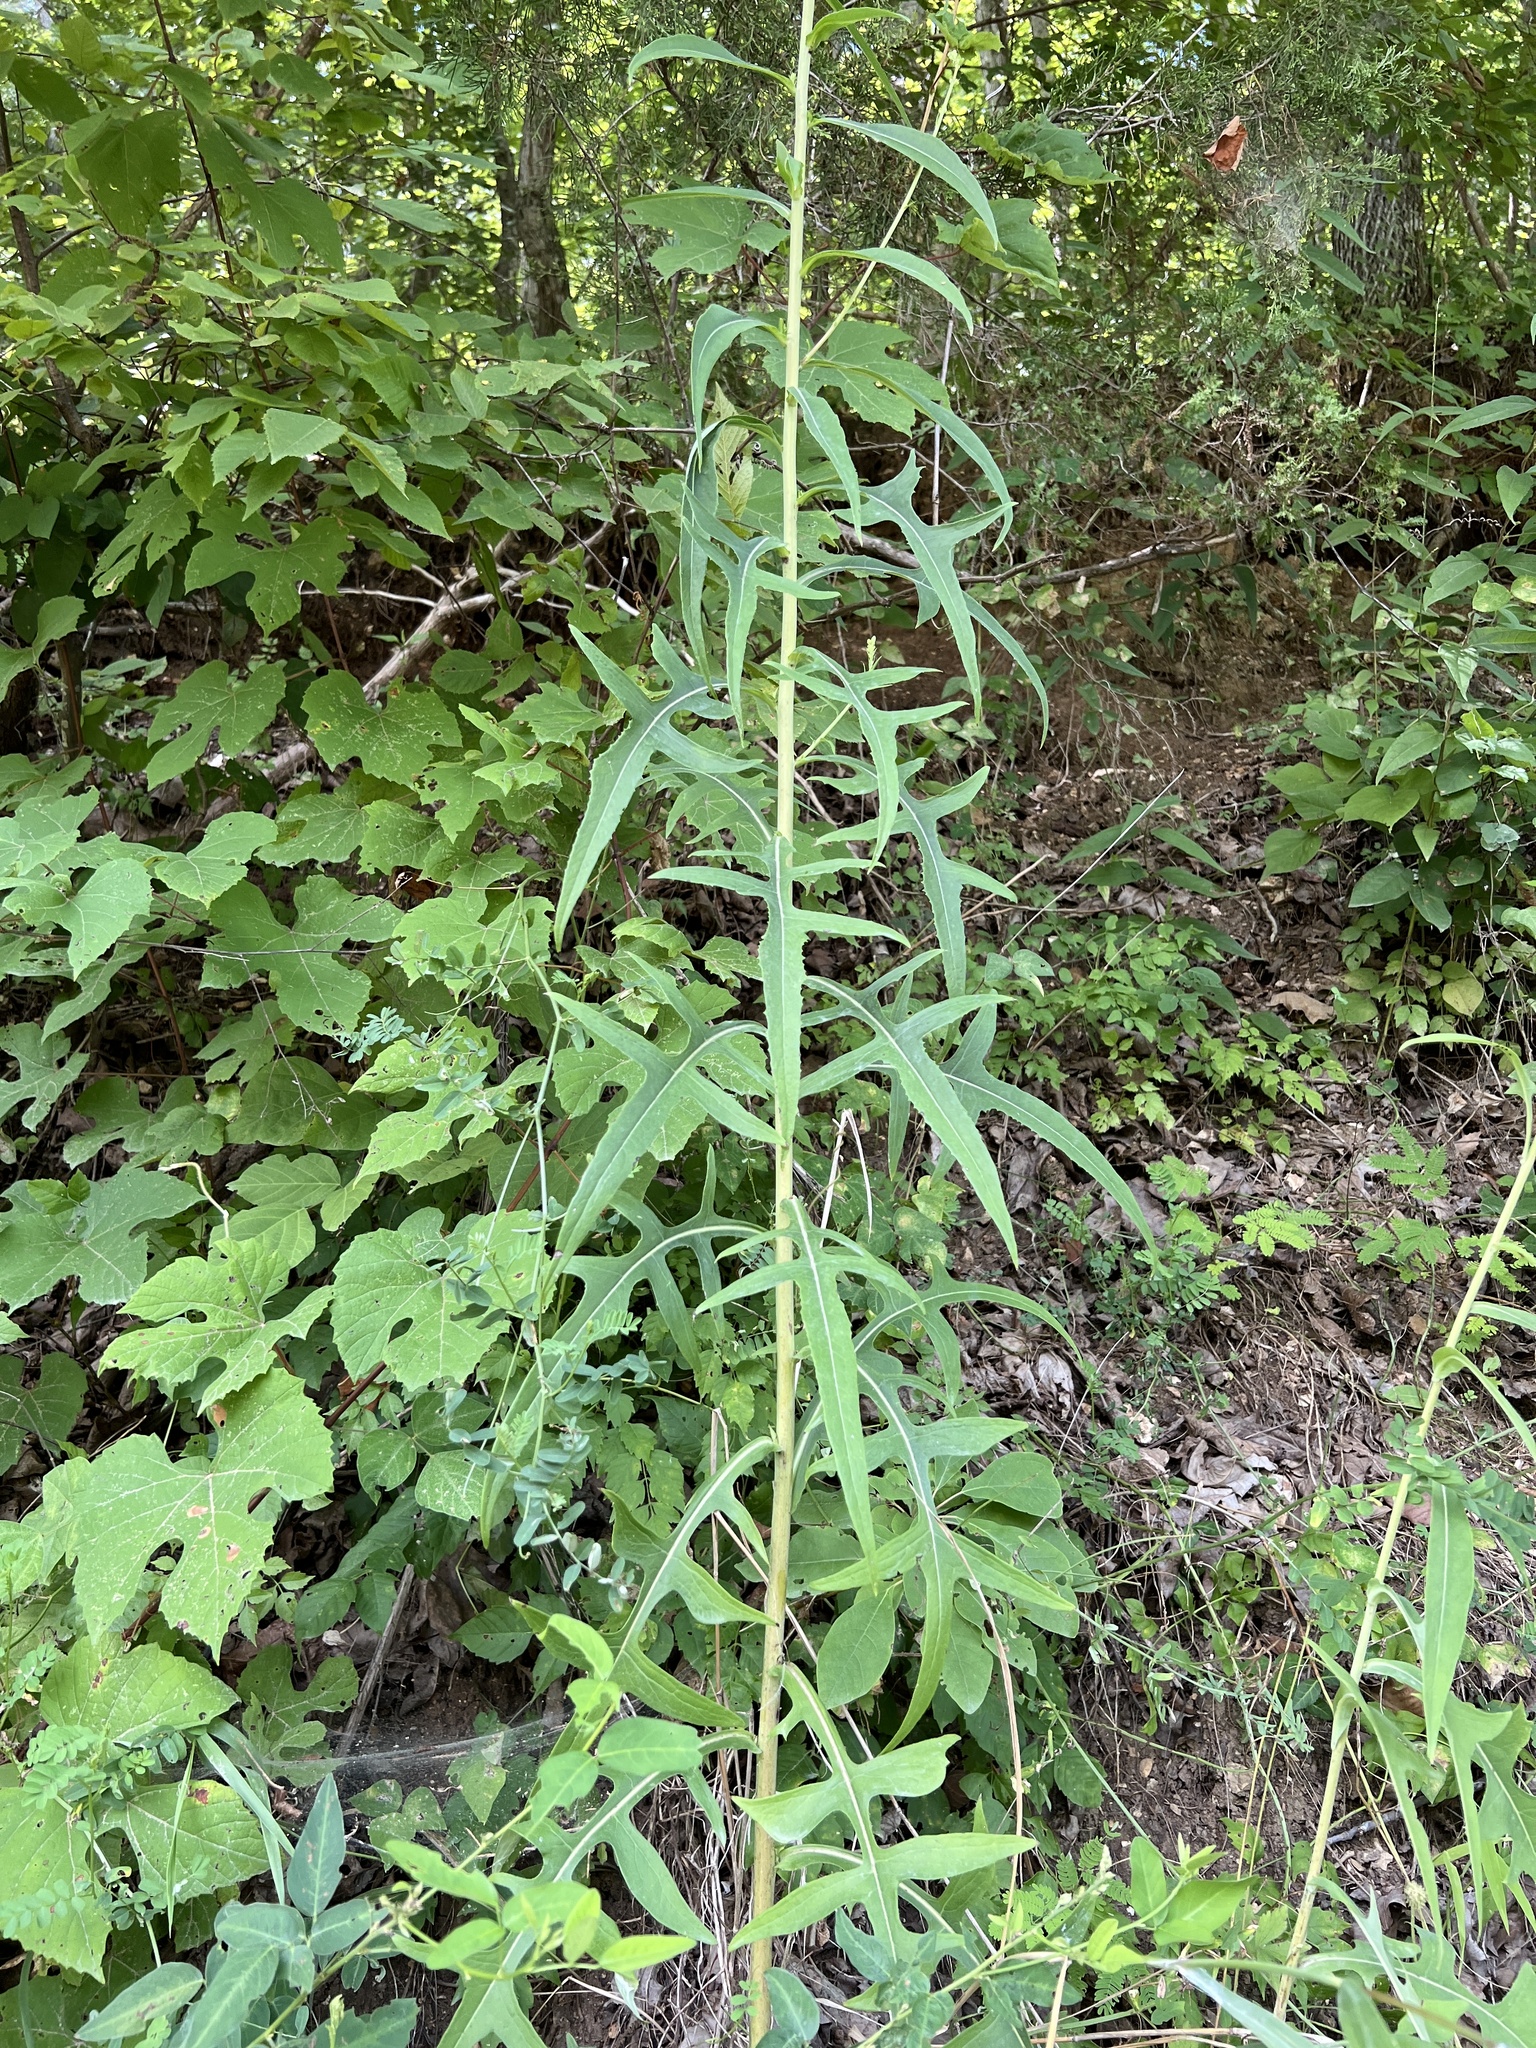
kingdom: Plantae
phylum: Tracheophyta
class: Magnoliopsida
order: Asterales
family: Asteraceae
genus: Lactuca
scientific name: Lactuca canadensis
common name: Canada lettuce
